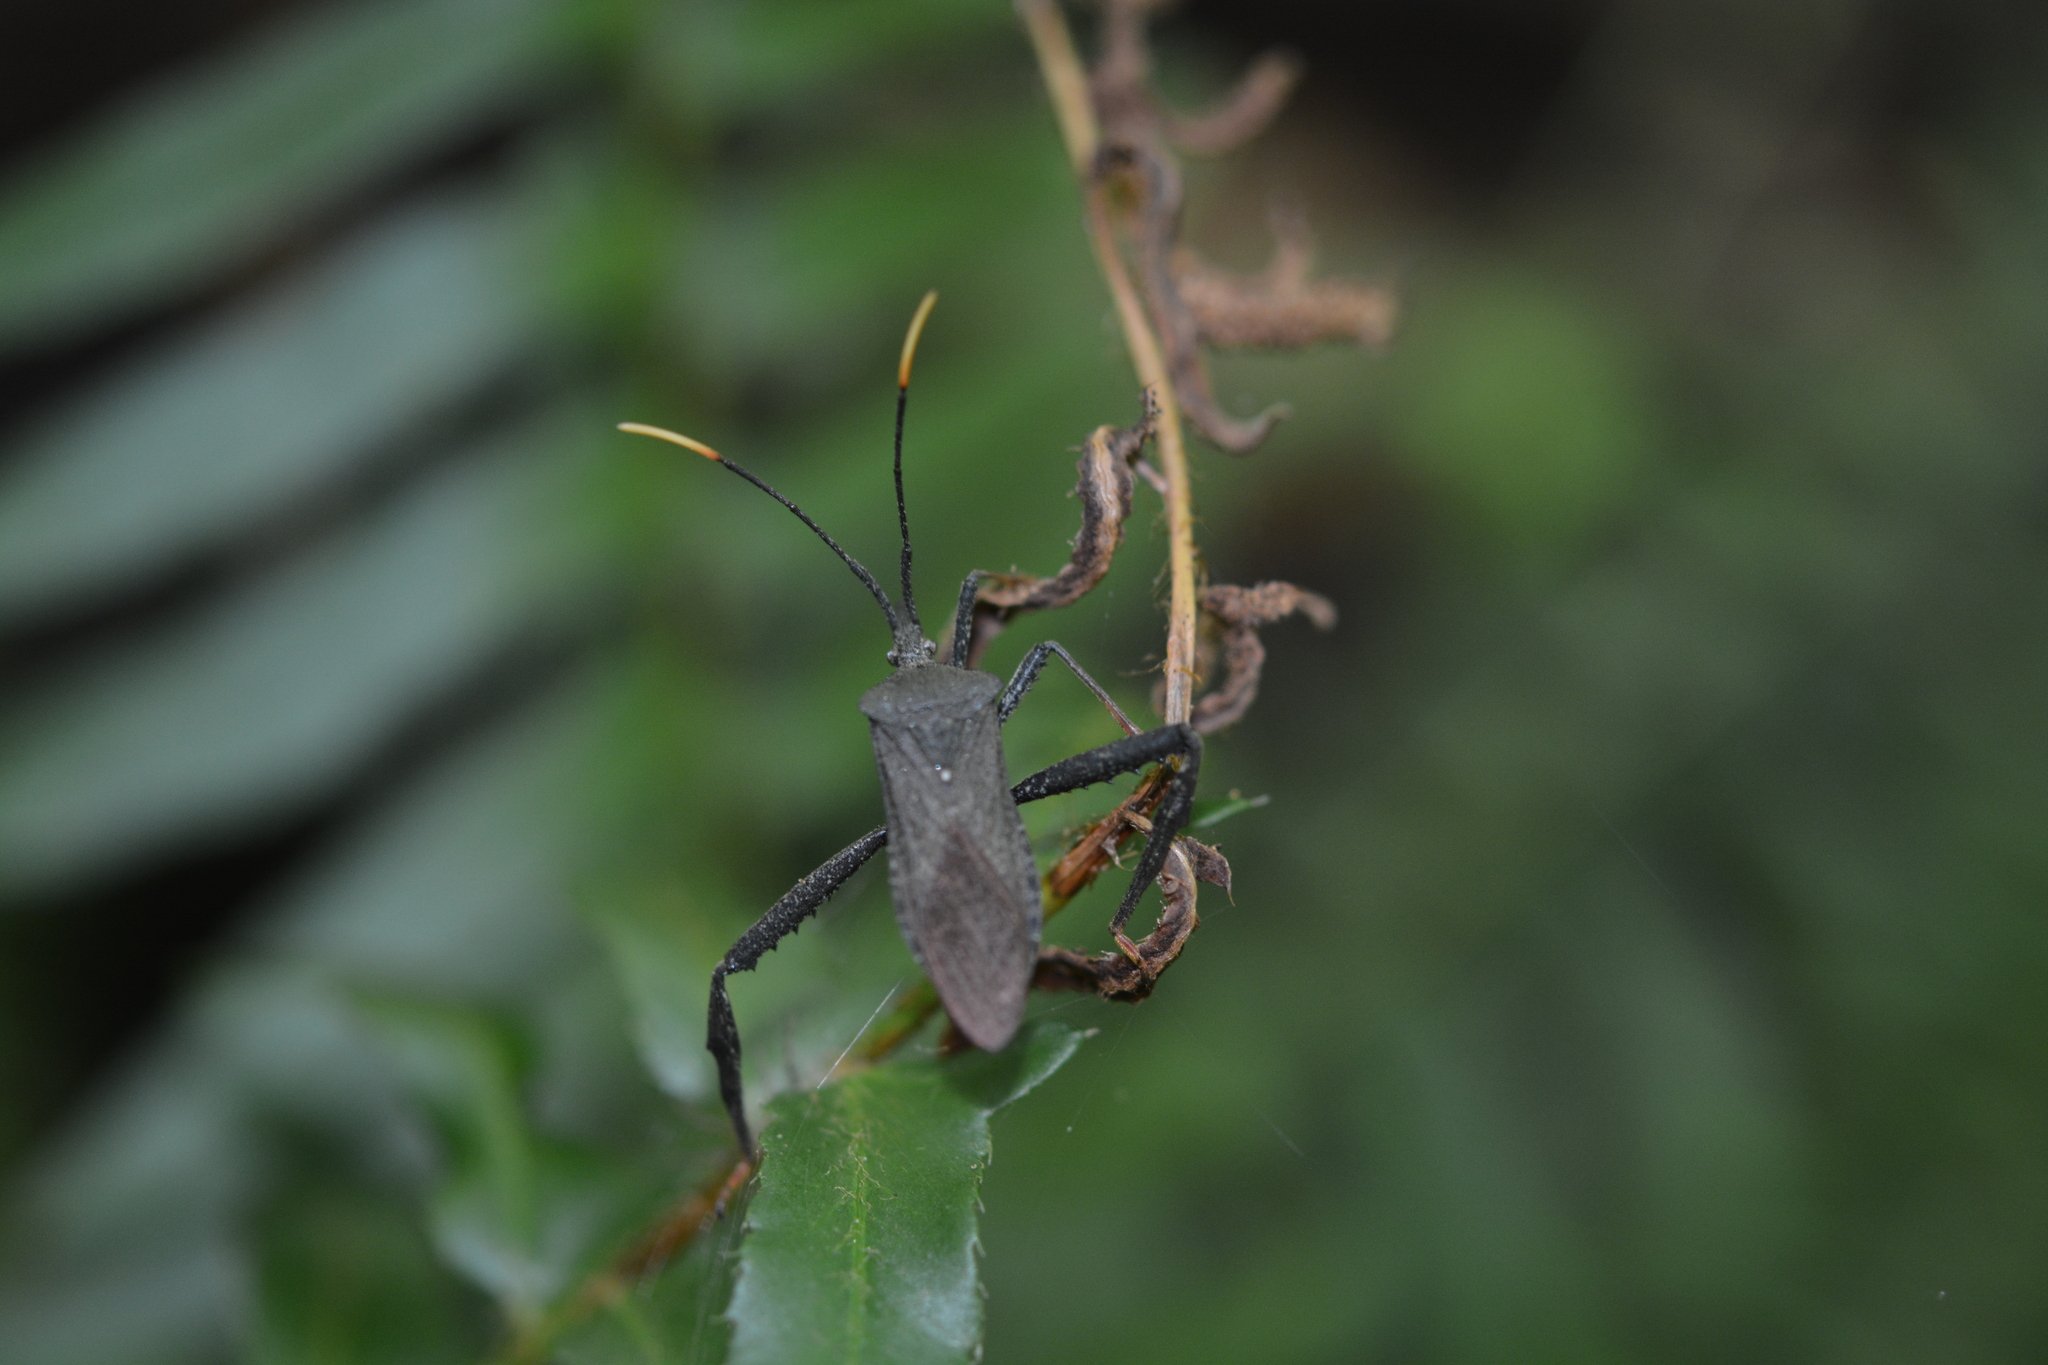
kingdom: Animalia
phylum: Arthropoda
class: Insecta
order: Hemiptera
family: Coreidae
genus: Acanthocephala
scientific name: Acanthocephala terminalis
